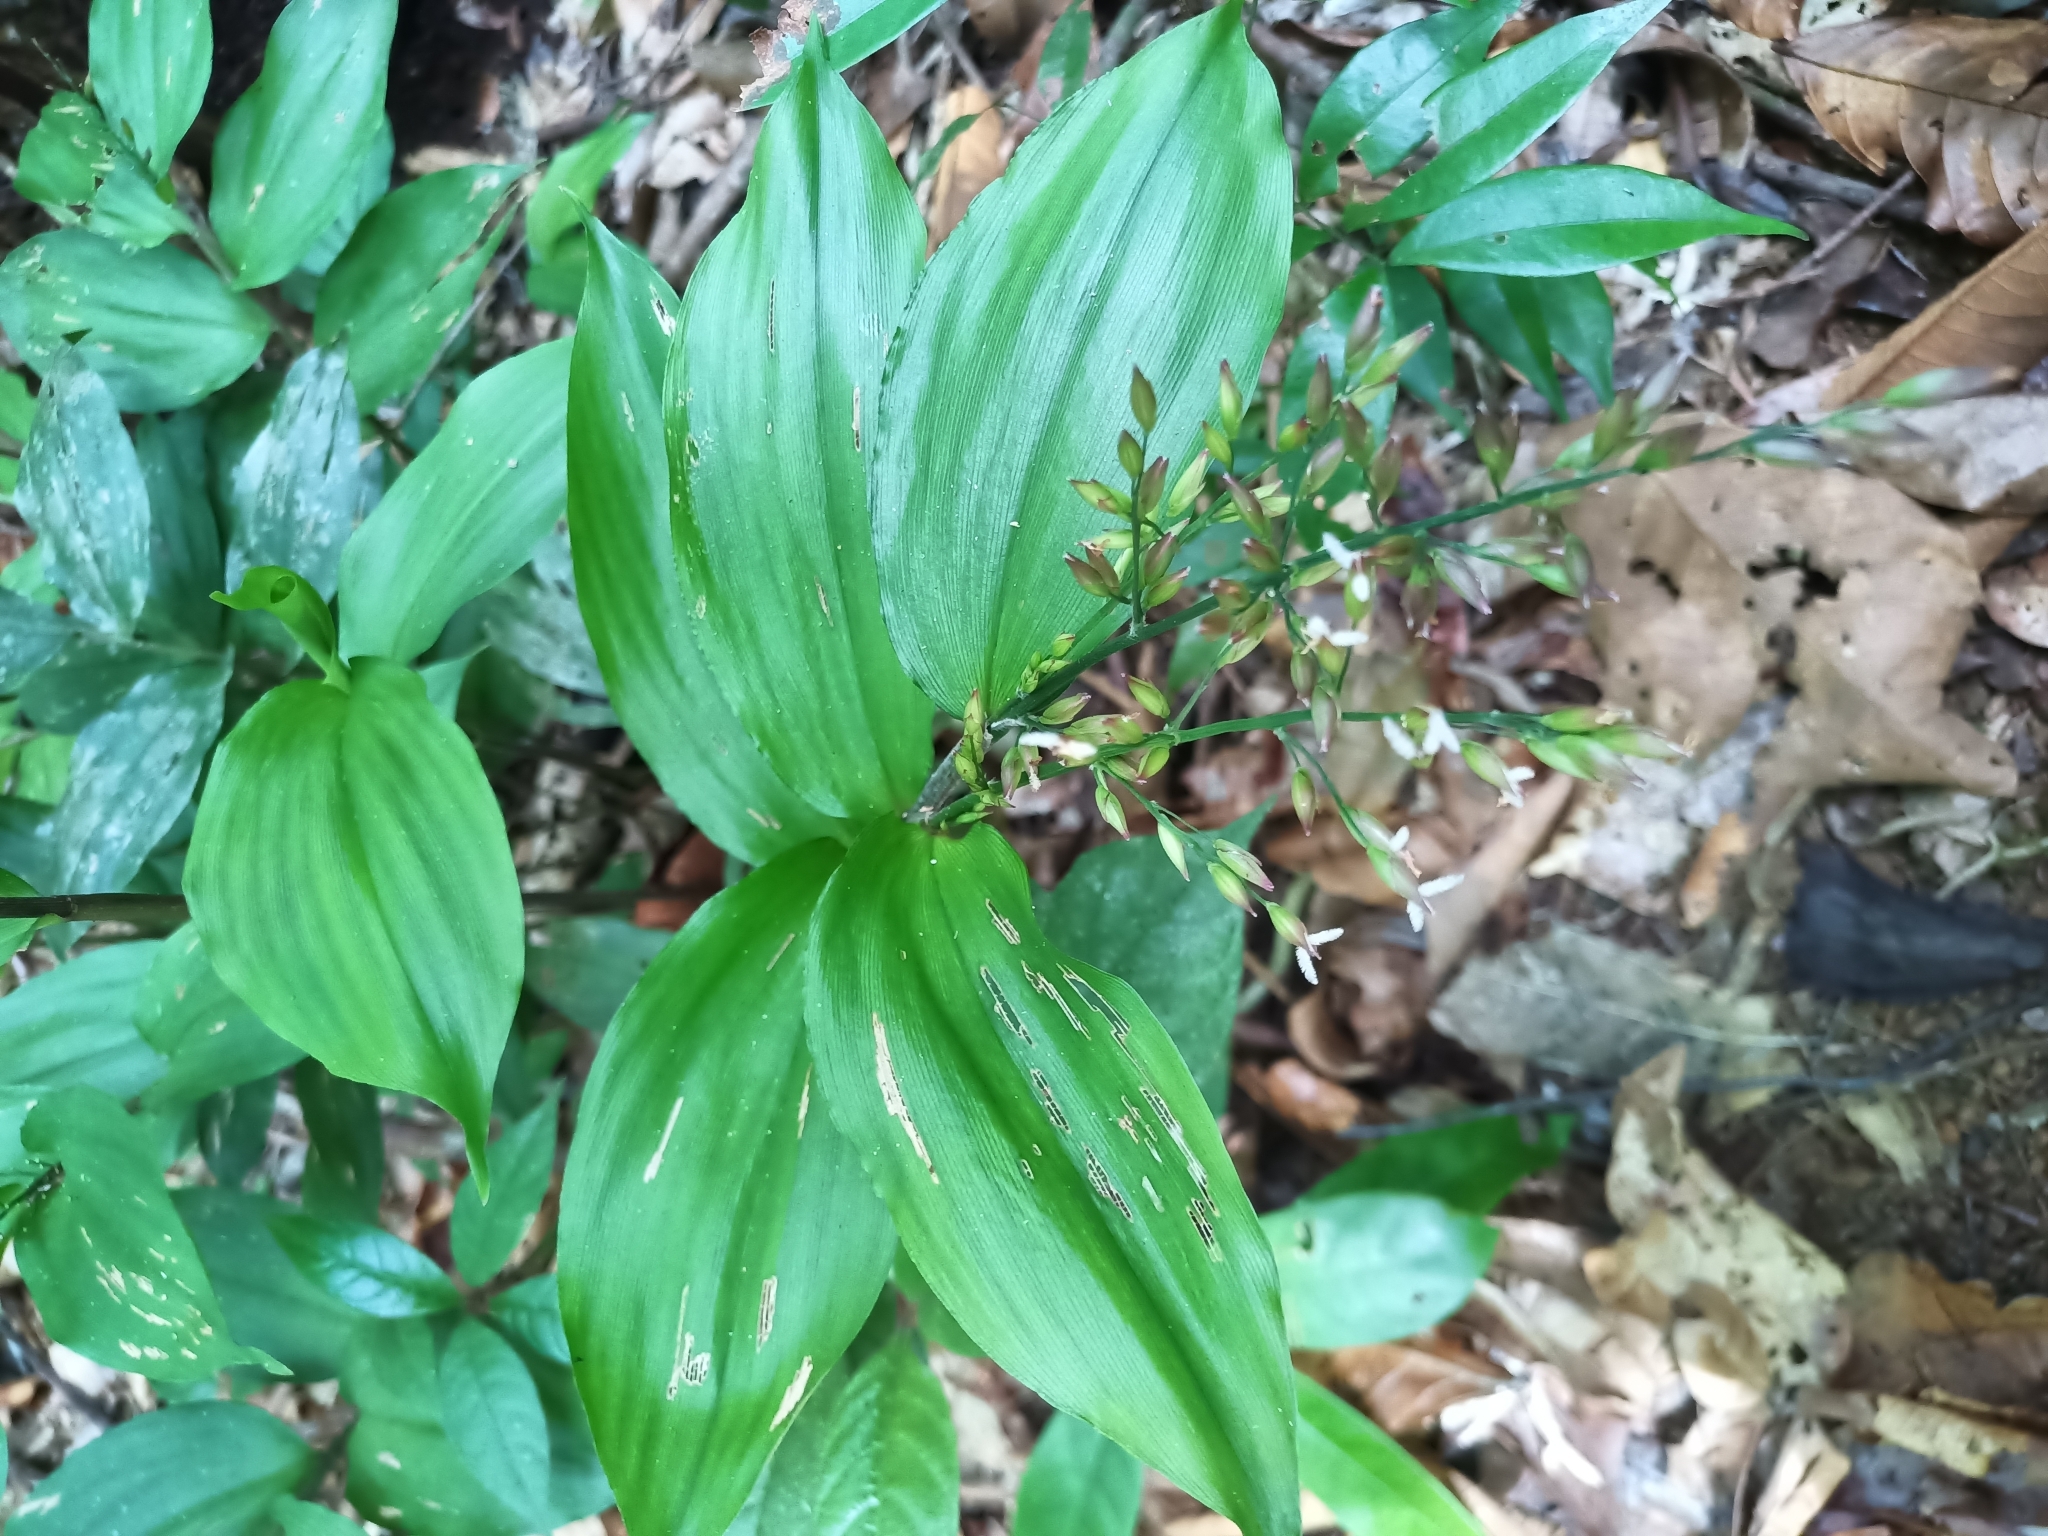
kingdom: Plantae
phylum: Tracheophyta
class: Liliopsida
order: Poales
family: Poaceae
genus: Ichnanthus
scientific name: Ichnanthus panicoides
